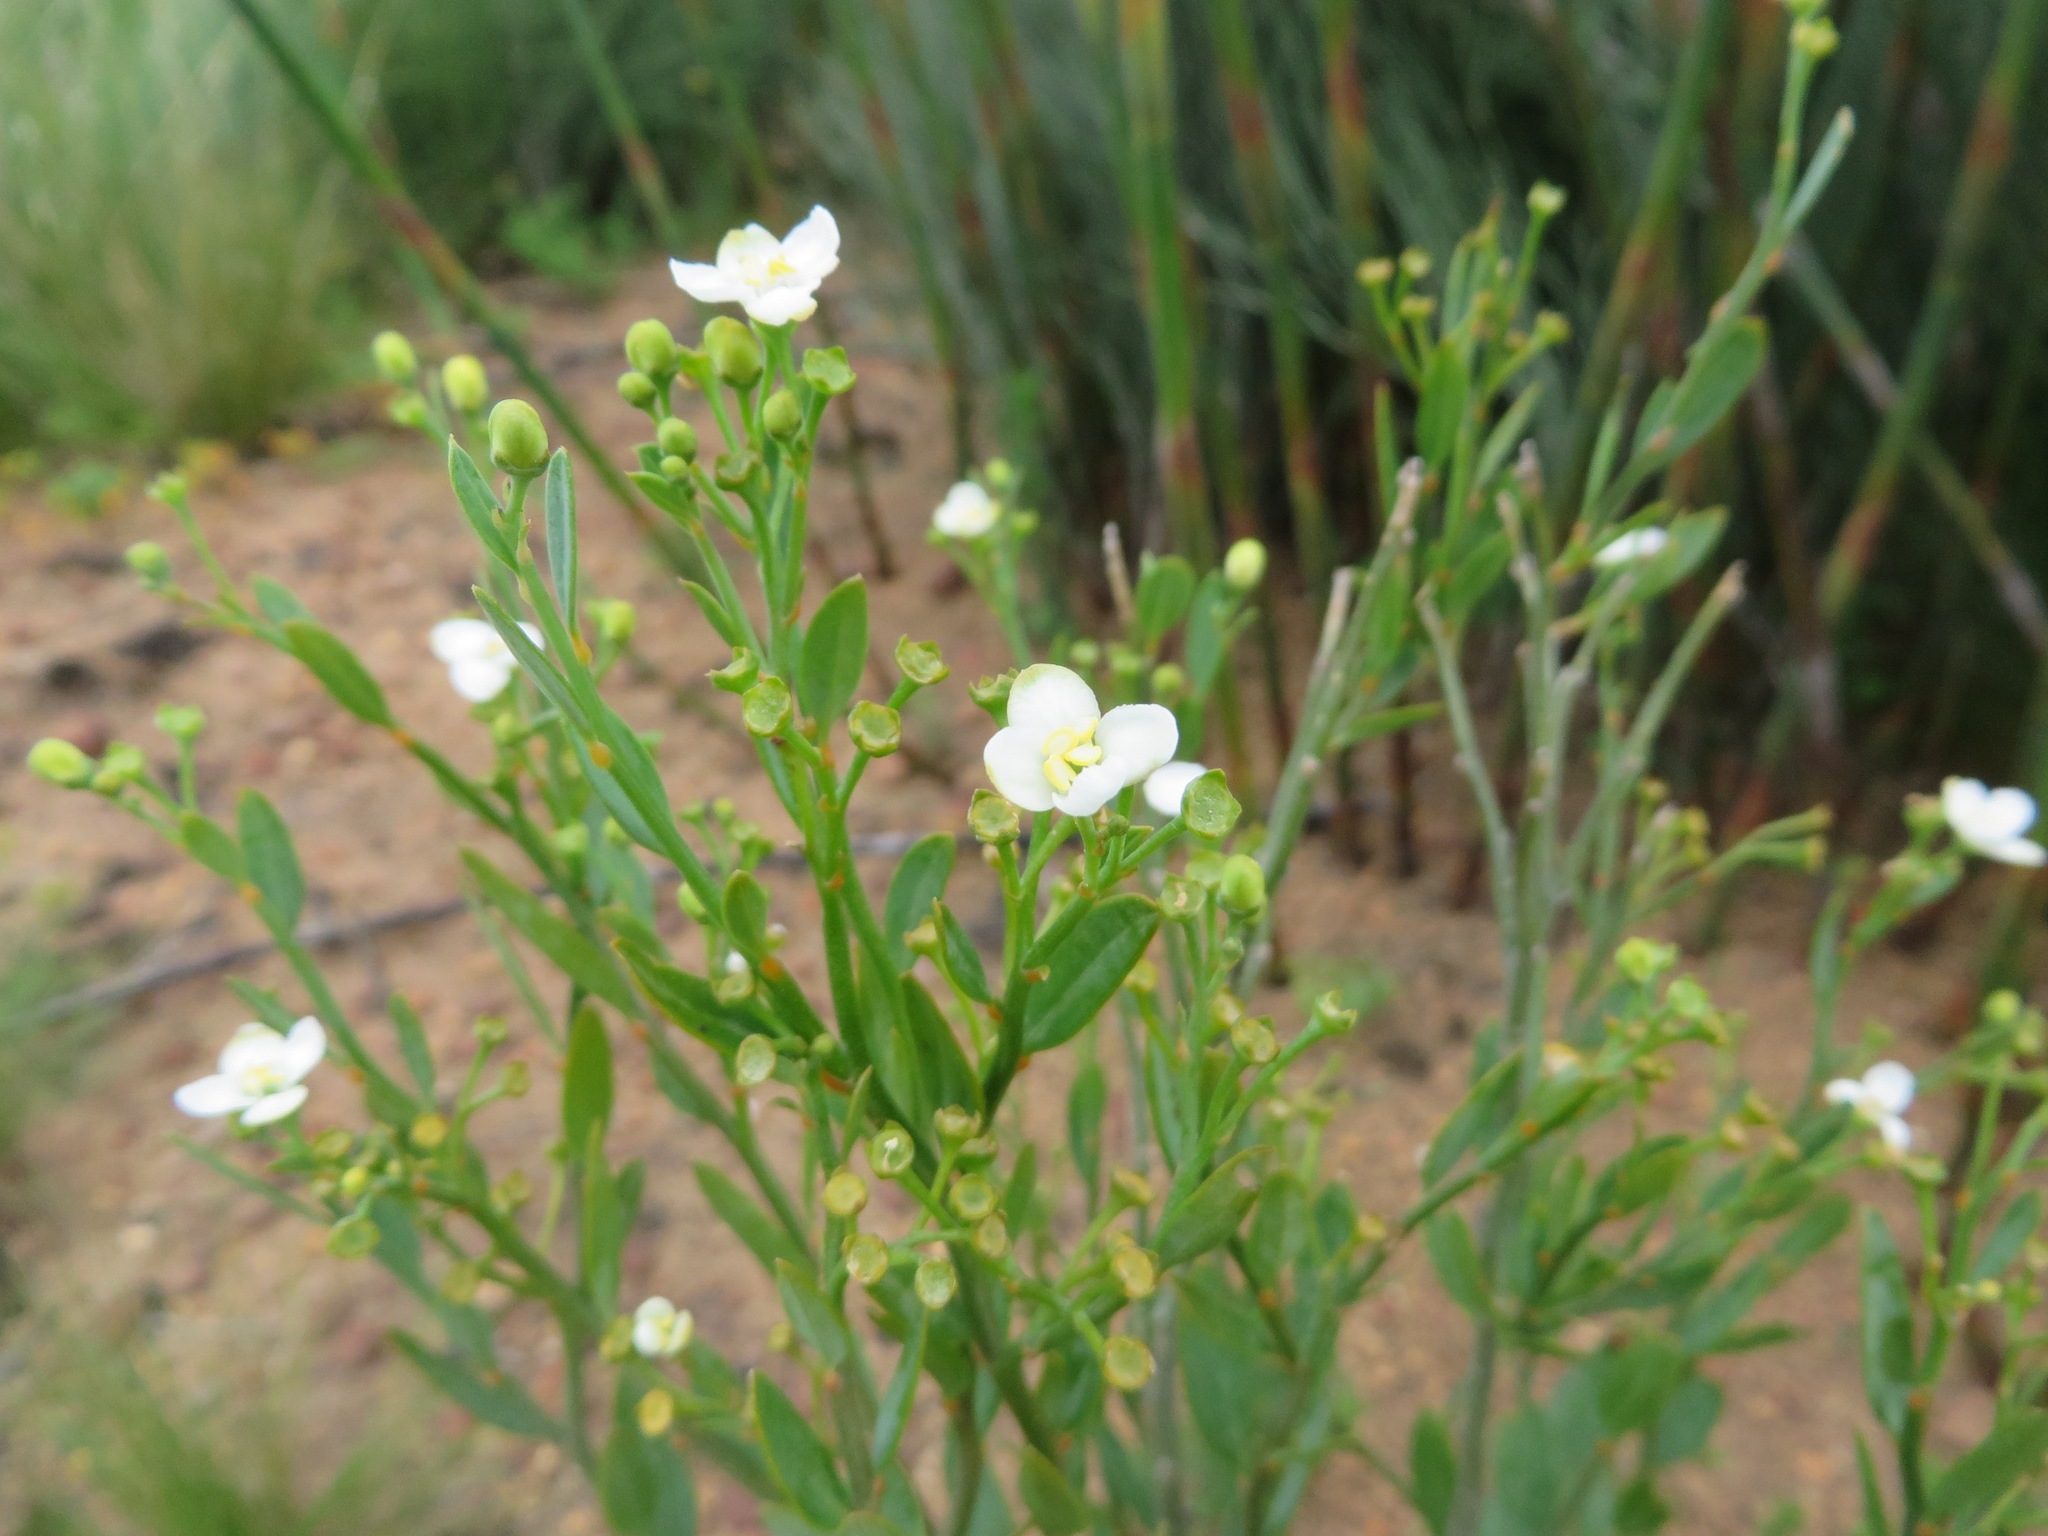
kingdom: Plantae
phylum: Tracheophyta
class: Magnoliopsida
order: Solanales
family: Montiniaceae
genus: Montinia
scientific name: Montinia caryophyllacea
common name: Wild clove-bush
